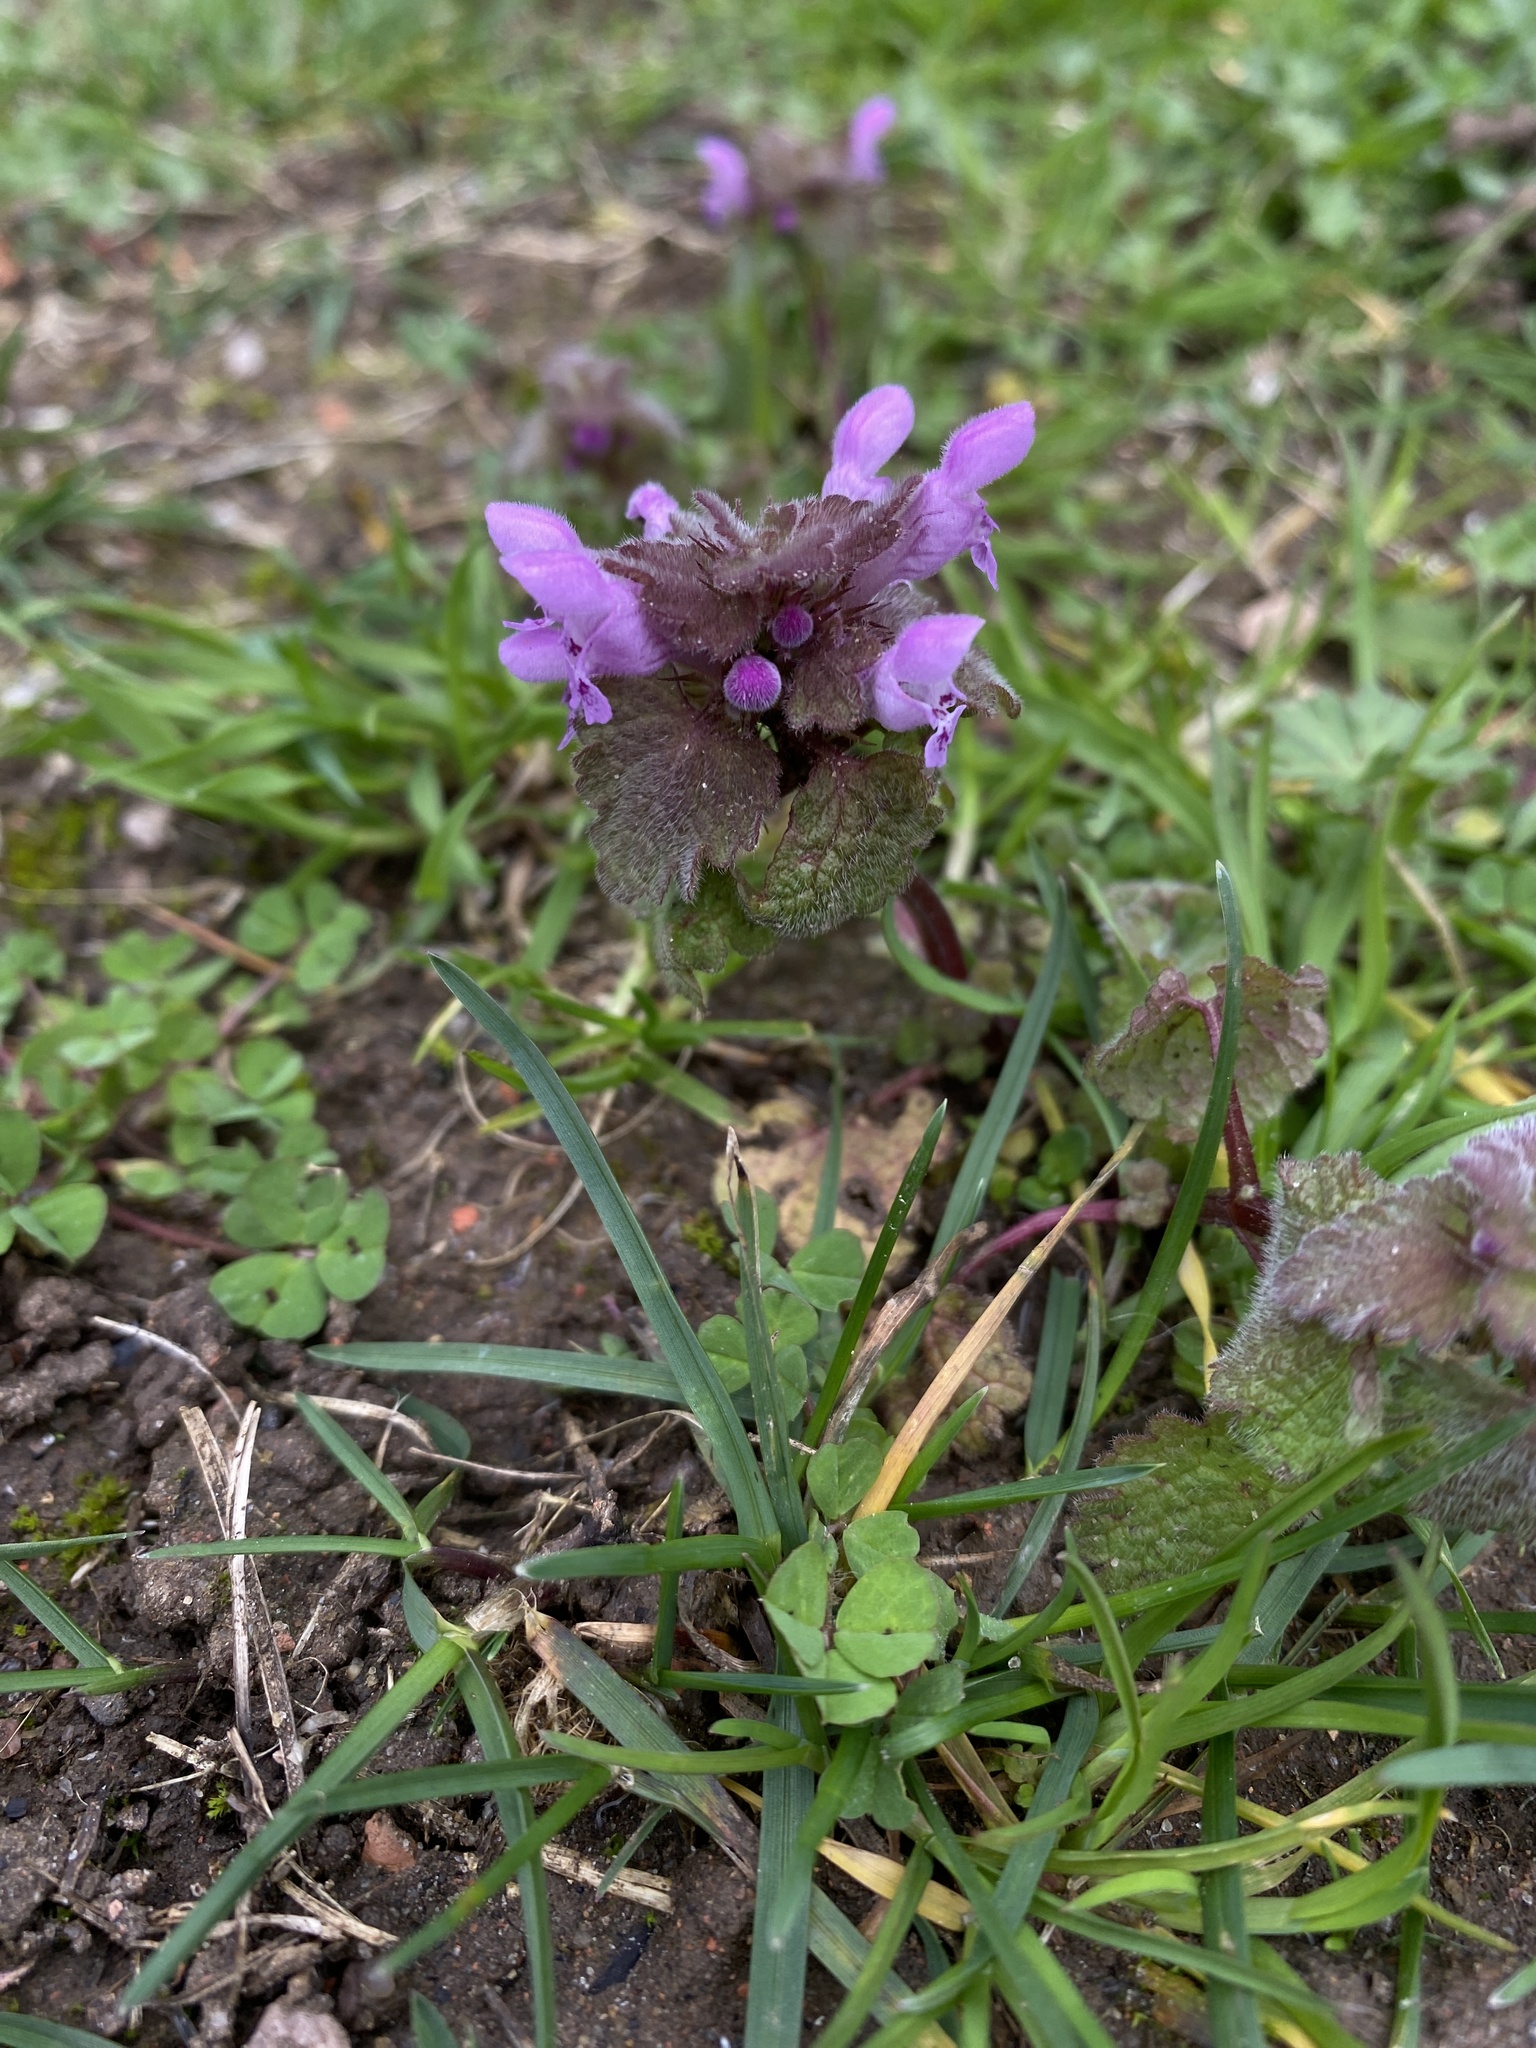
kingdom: Plantae
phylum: Tracheophyta
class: Magnoliopsida
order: Lamiales
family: Lamiaceae
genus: Lamium
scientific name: Lamium purpureum
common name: Red dead-nettle
